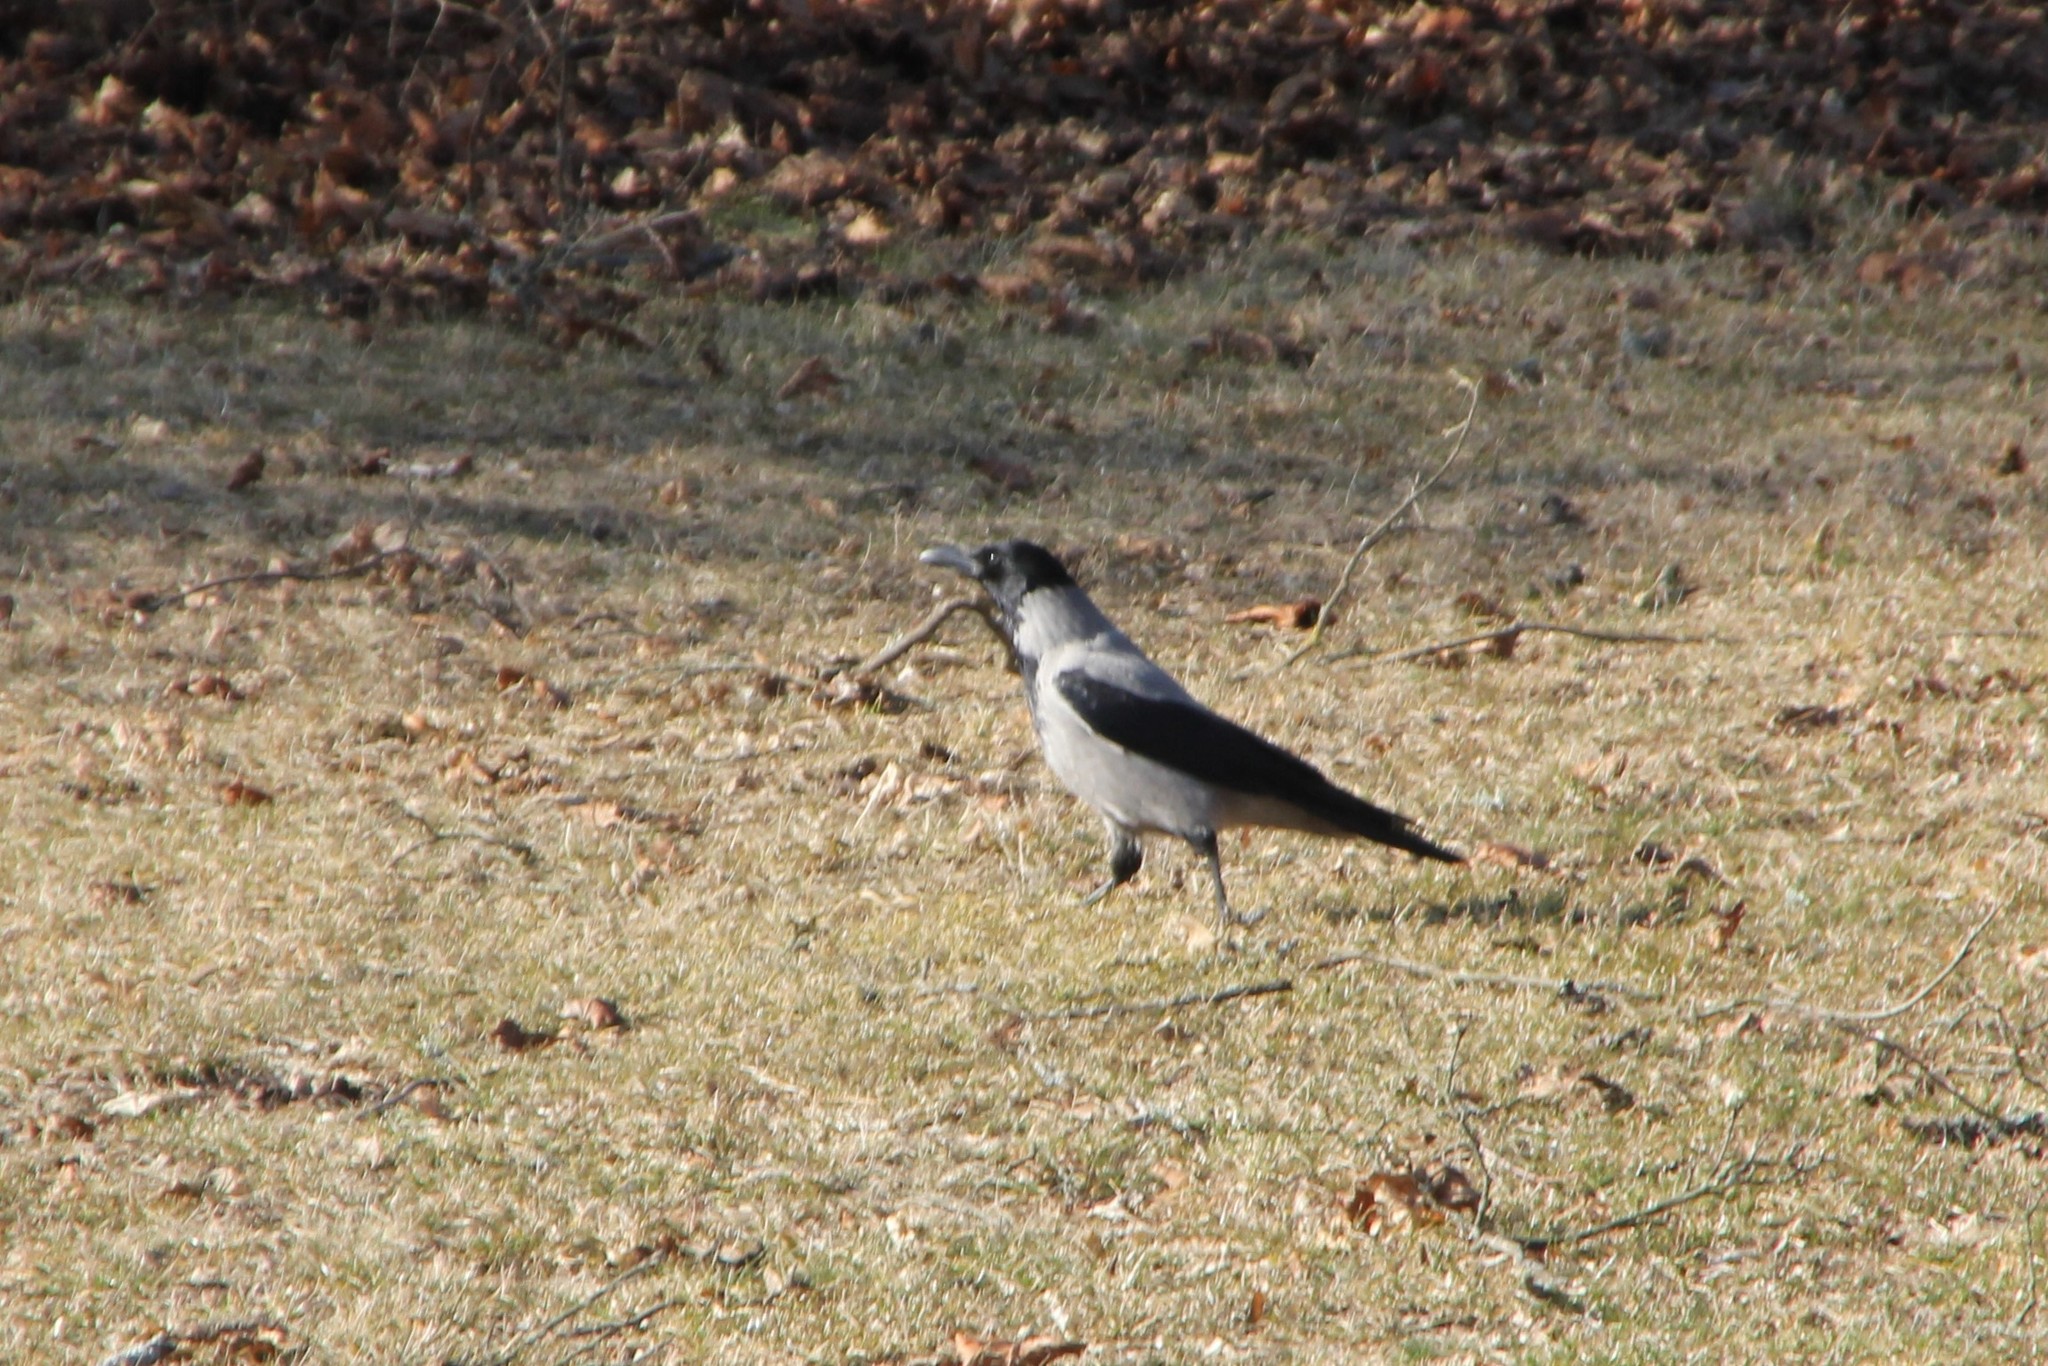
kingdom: Animalia
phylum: Chordata
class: Aves
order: Passeriformes
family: Corvidae
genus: Corvus
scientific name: Corvus cornix
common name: Hooded crow
